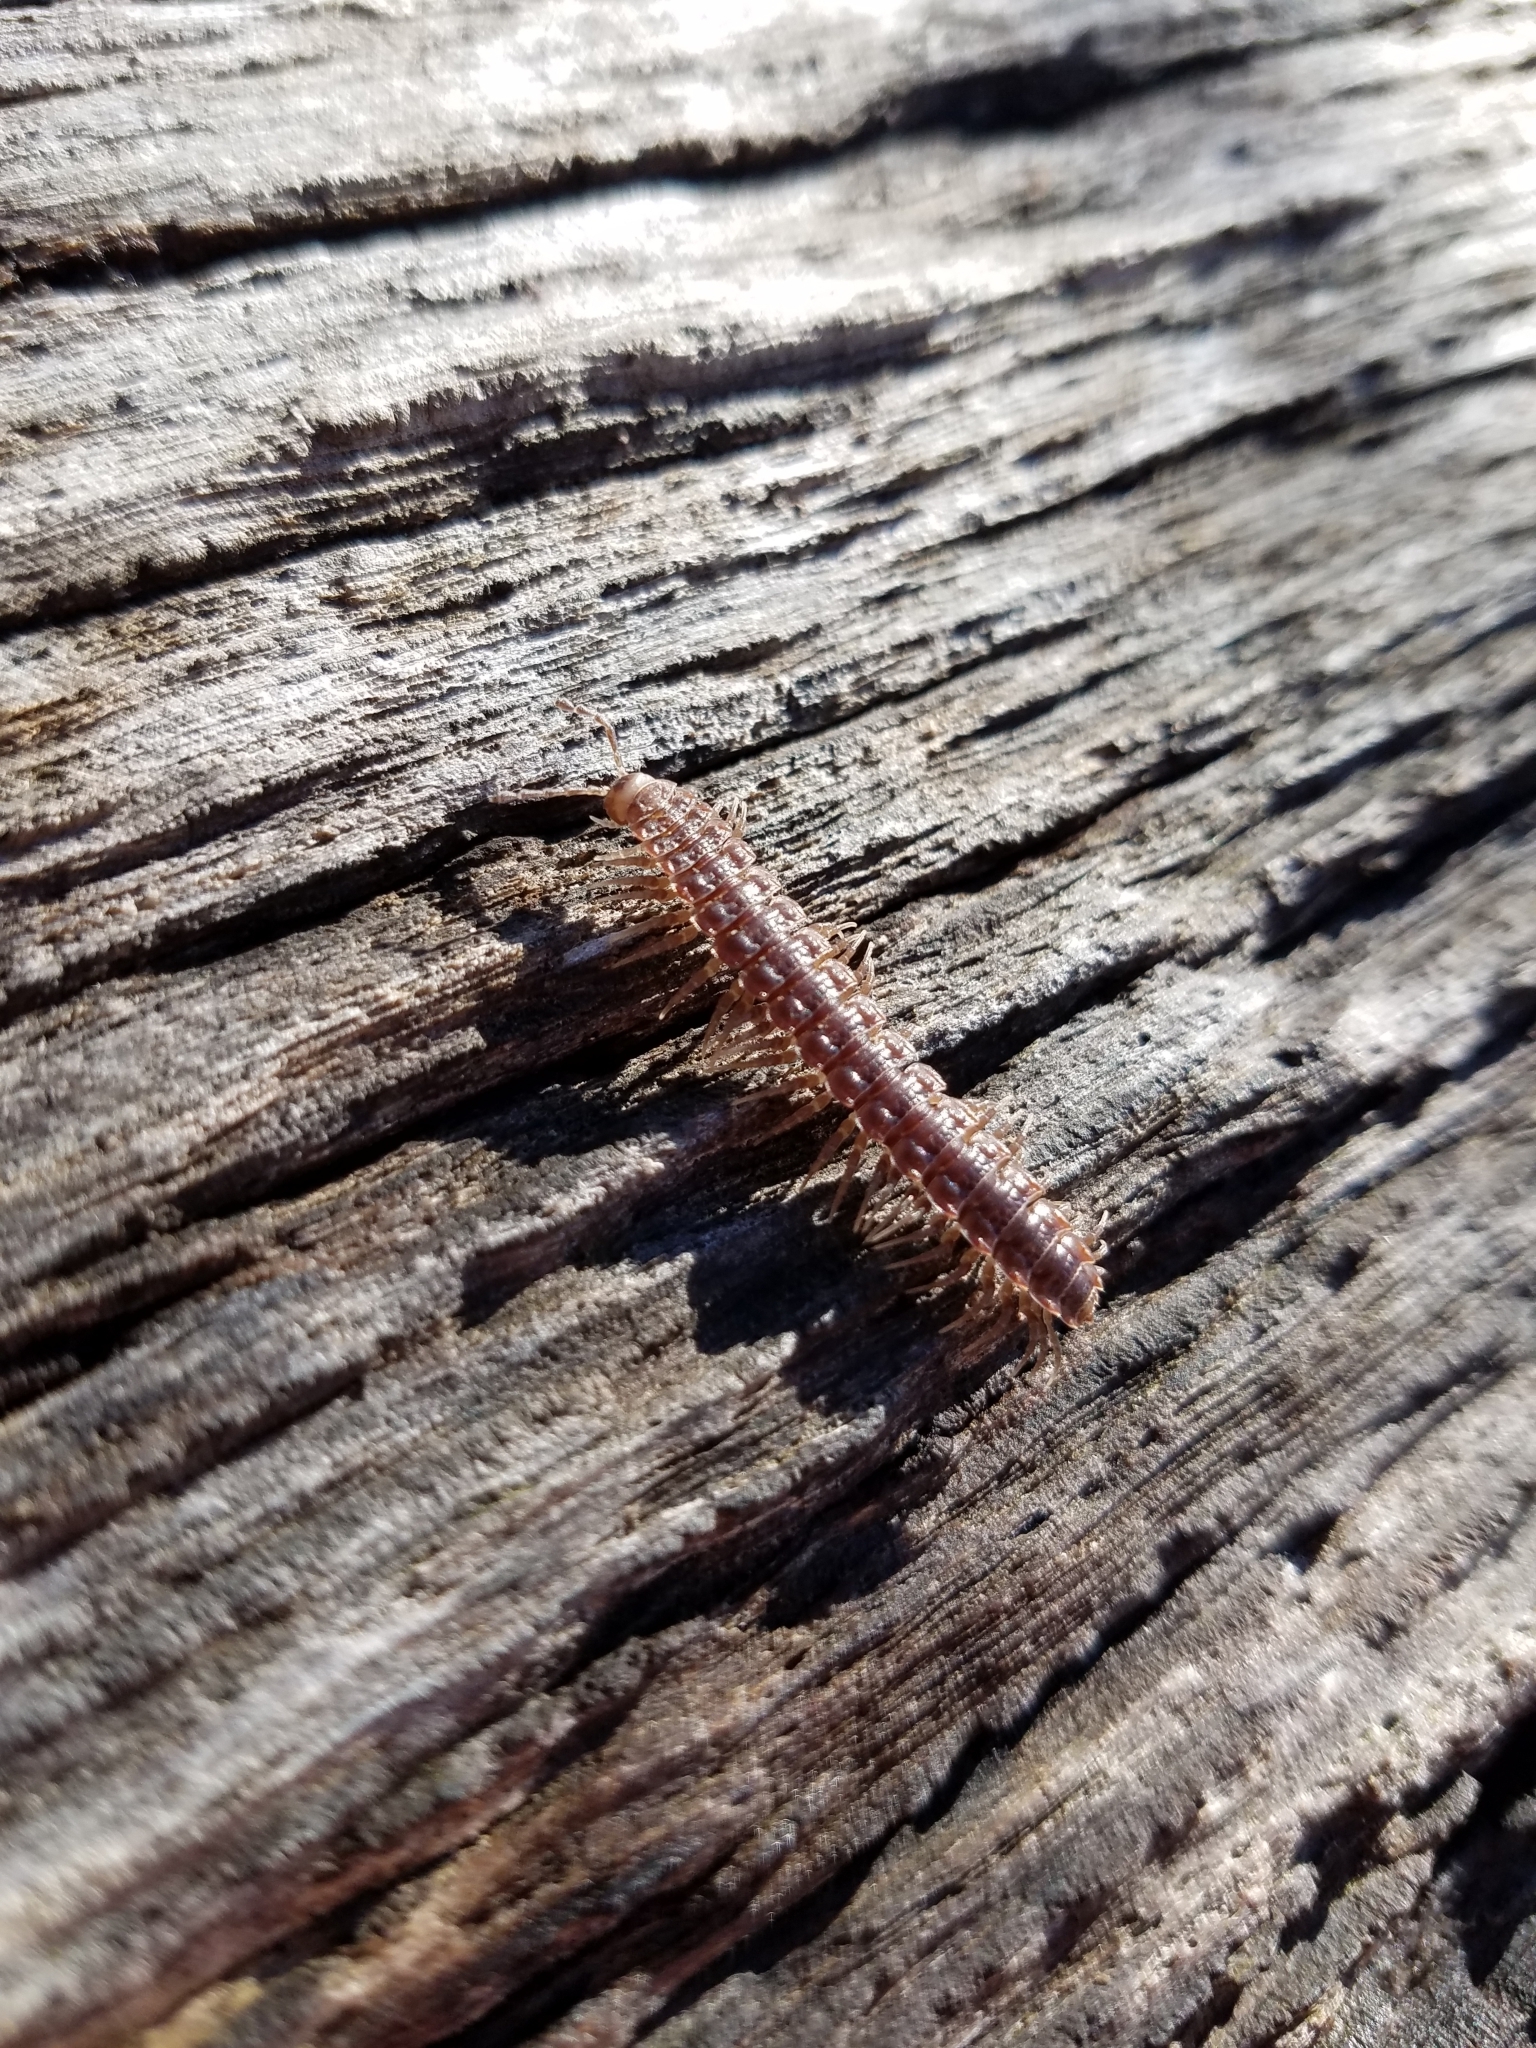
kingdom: Animalia
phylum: Arthropoda
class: Diplopoda
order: Polydesmida
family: Polydesmidae
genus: Pseudopolydesmus
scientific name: Pseudopolydesmus serratus
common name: Common pink flat-back millipede
